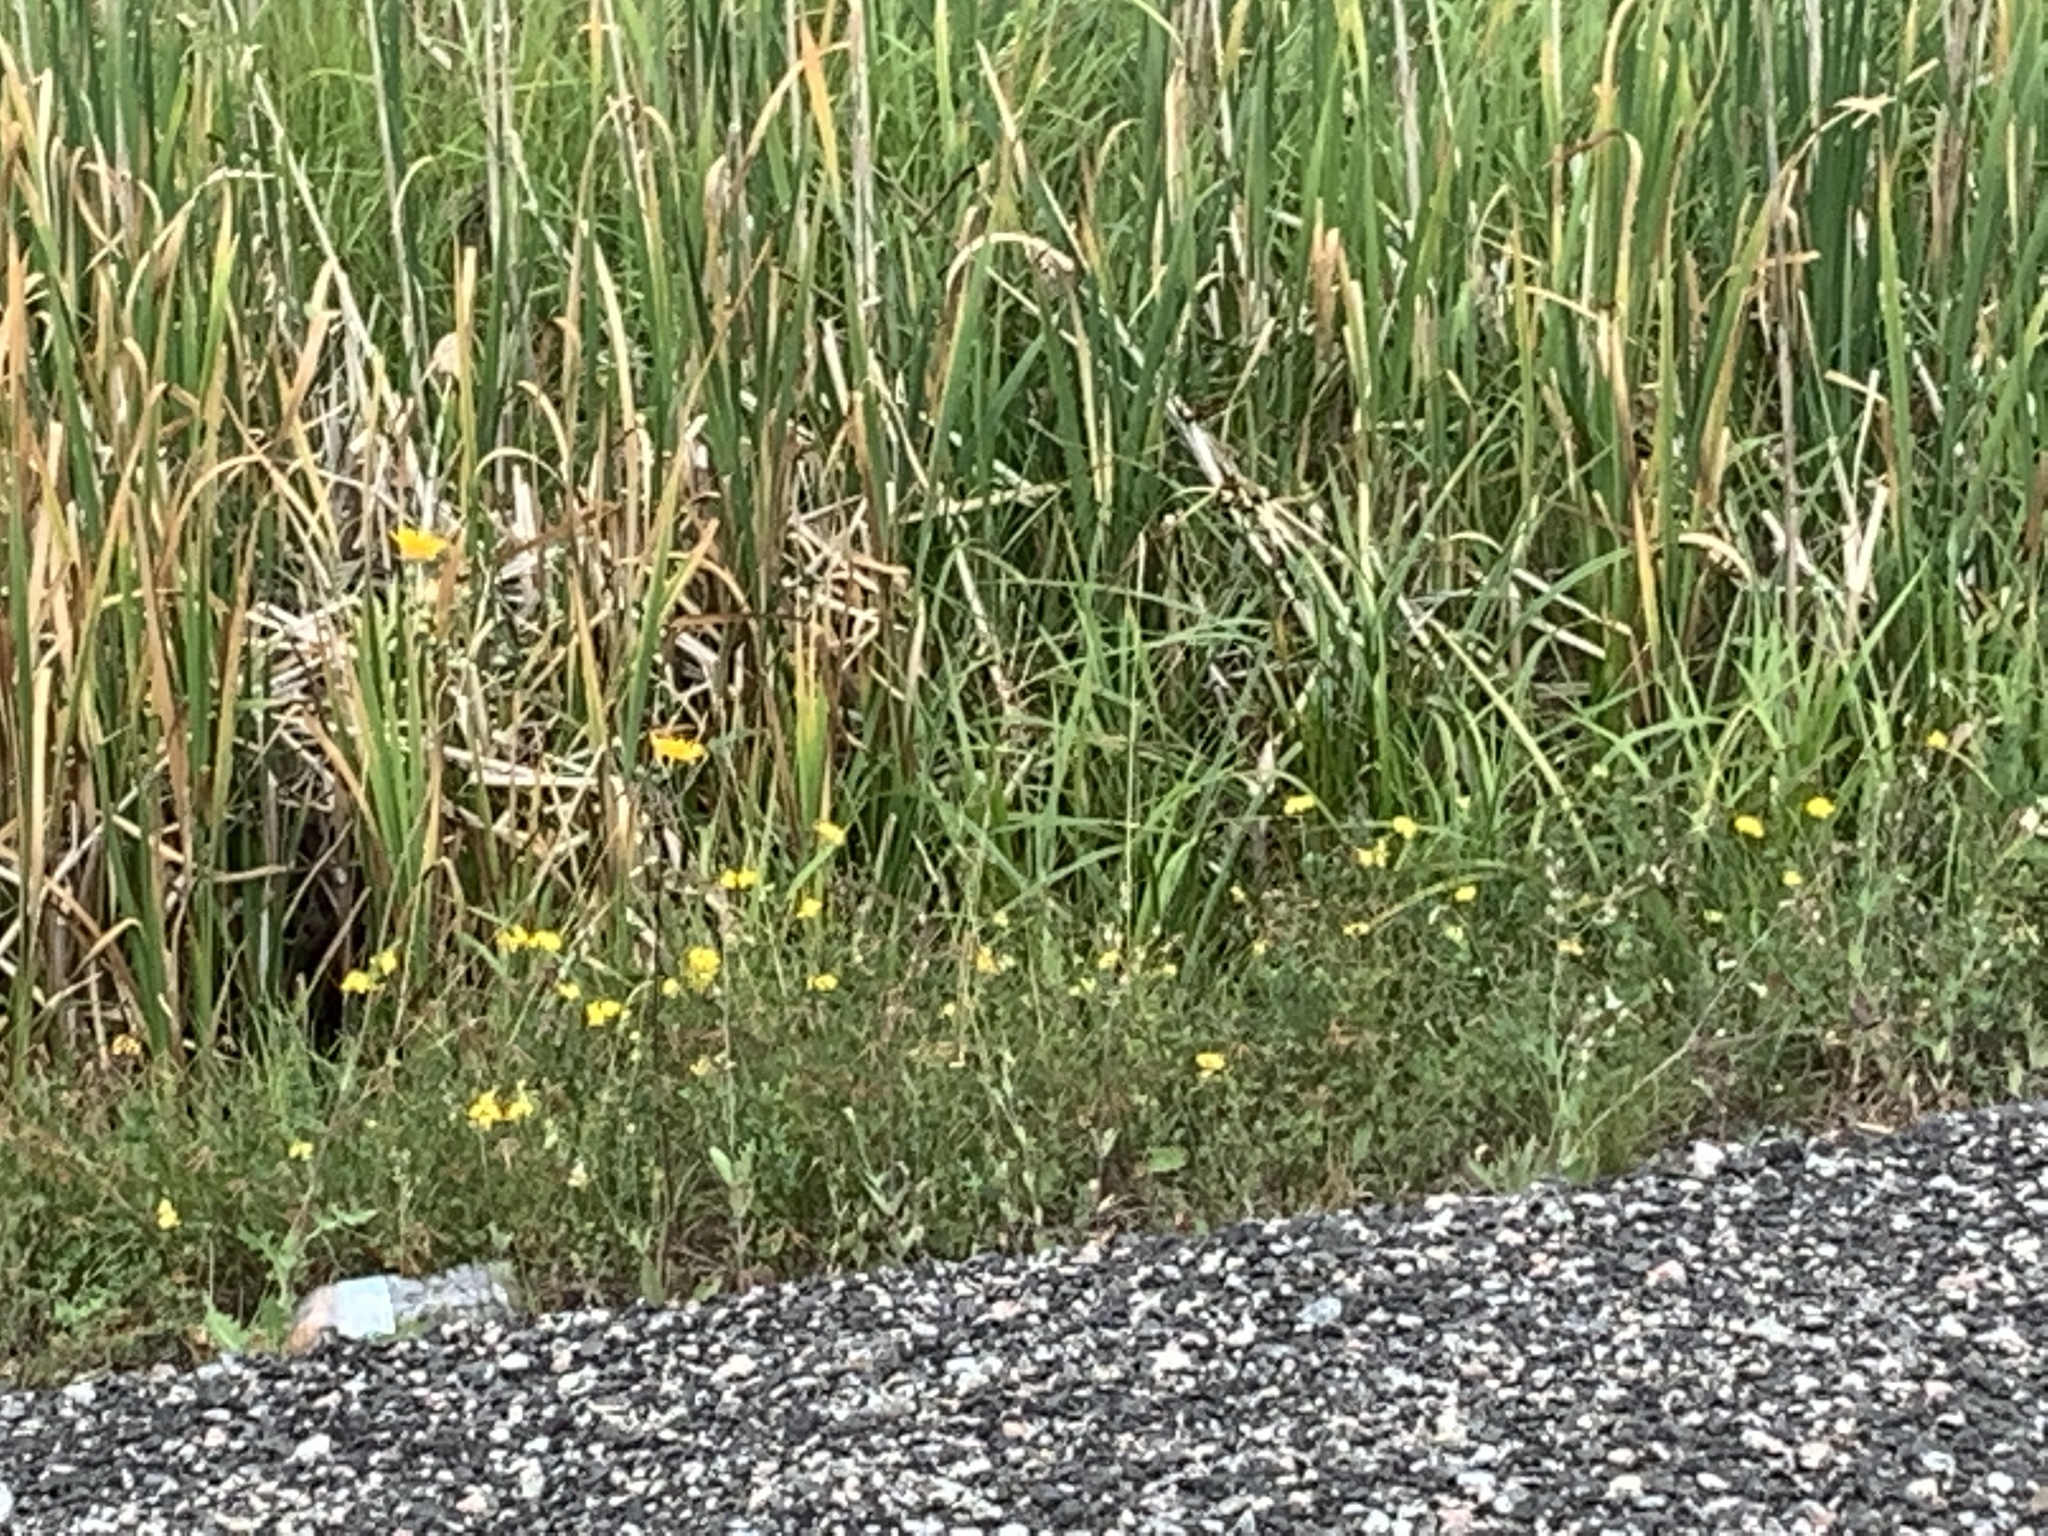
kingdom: Plantae
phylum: Tracheophyta
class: Magnoliopsida
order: Fabales
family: Fabaceae
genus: Lotus
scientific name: Lotus corniculatus
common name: Common bird's-foot-trefoil
